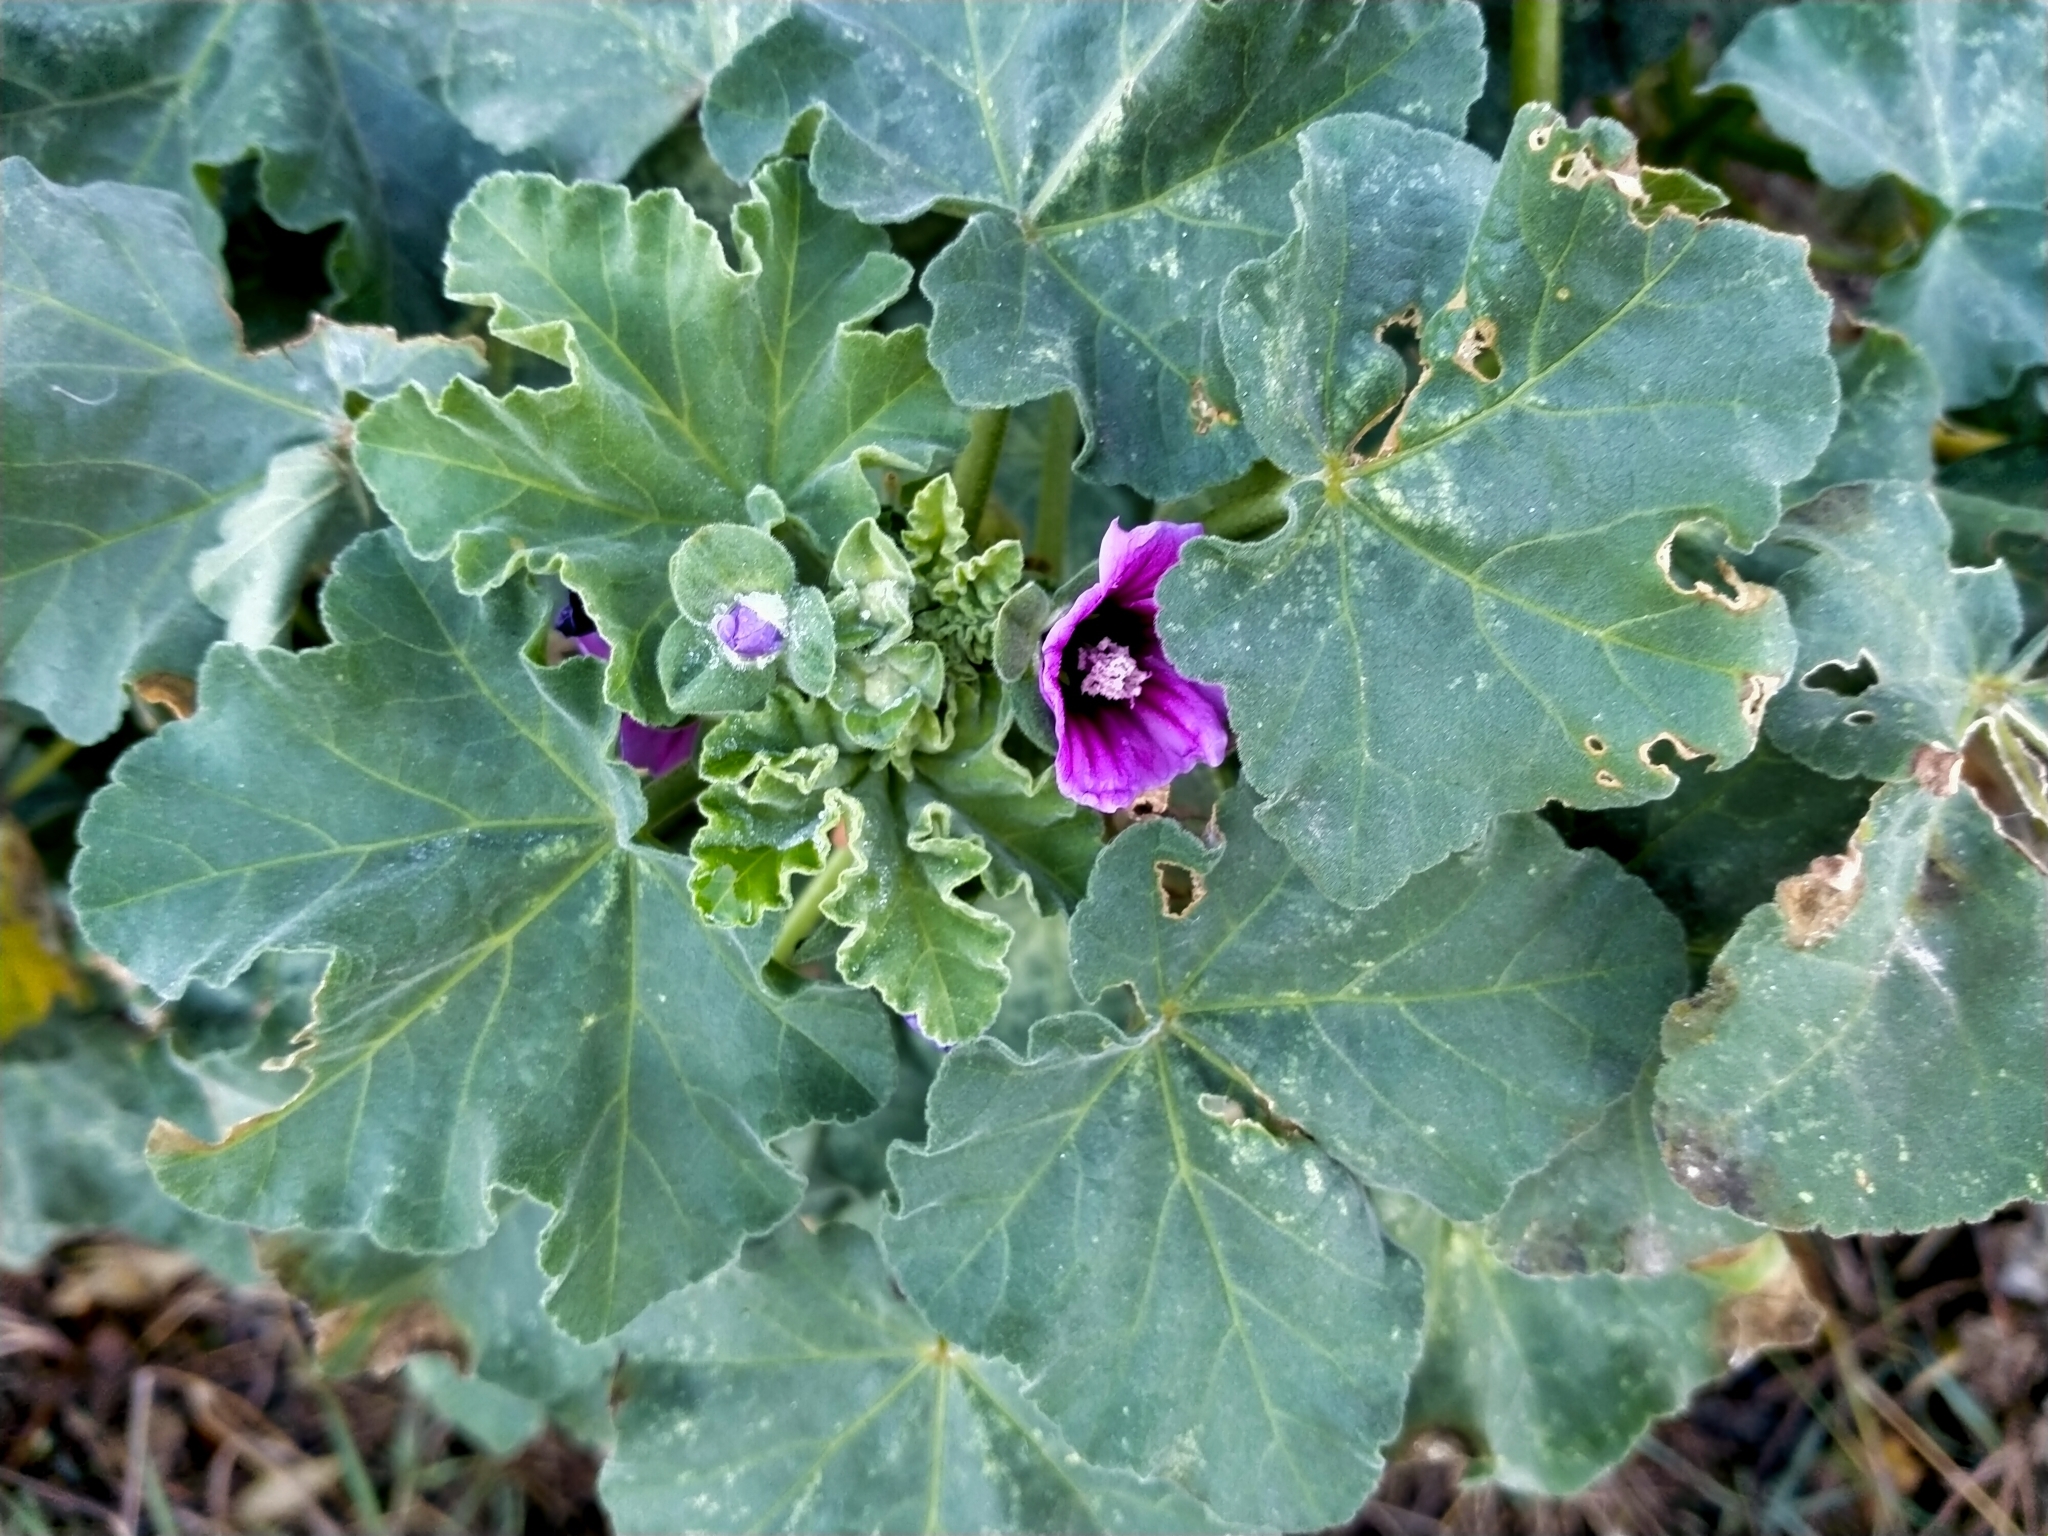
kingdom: Plantae
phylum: Tracheophyta
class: Magnoliopsida
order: Malvales
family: Malvaceae
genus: Malva
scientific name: Malva arborea
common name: Tree mallow
